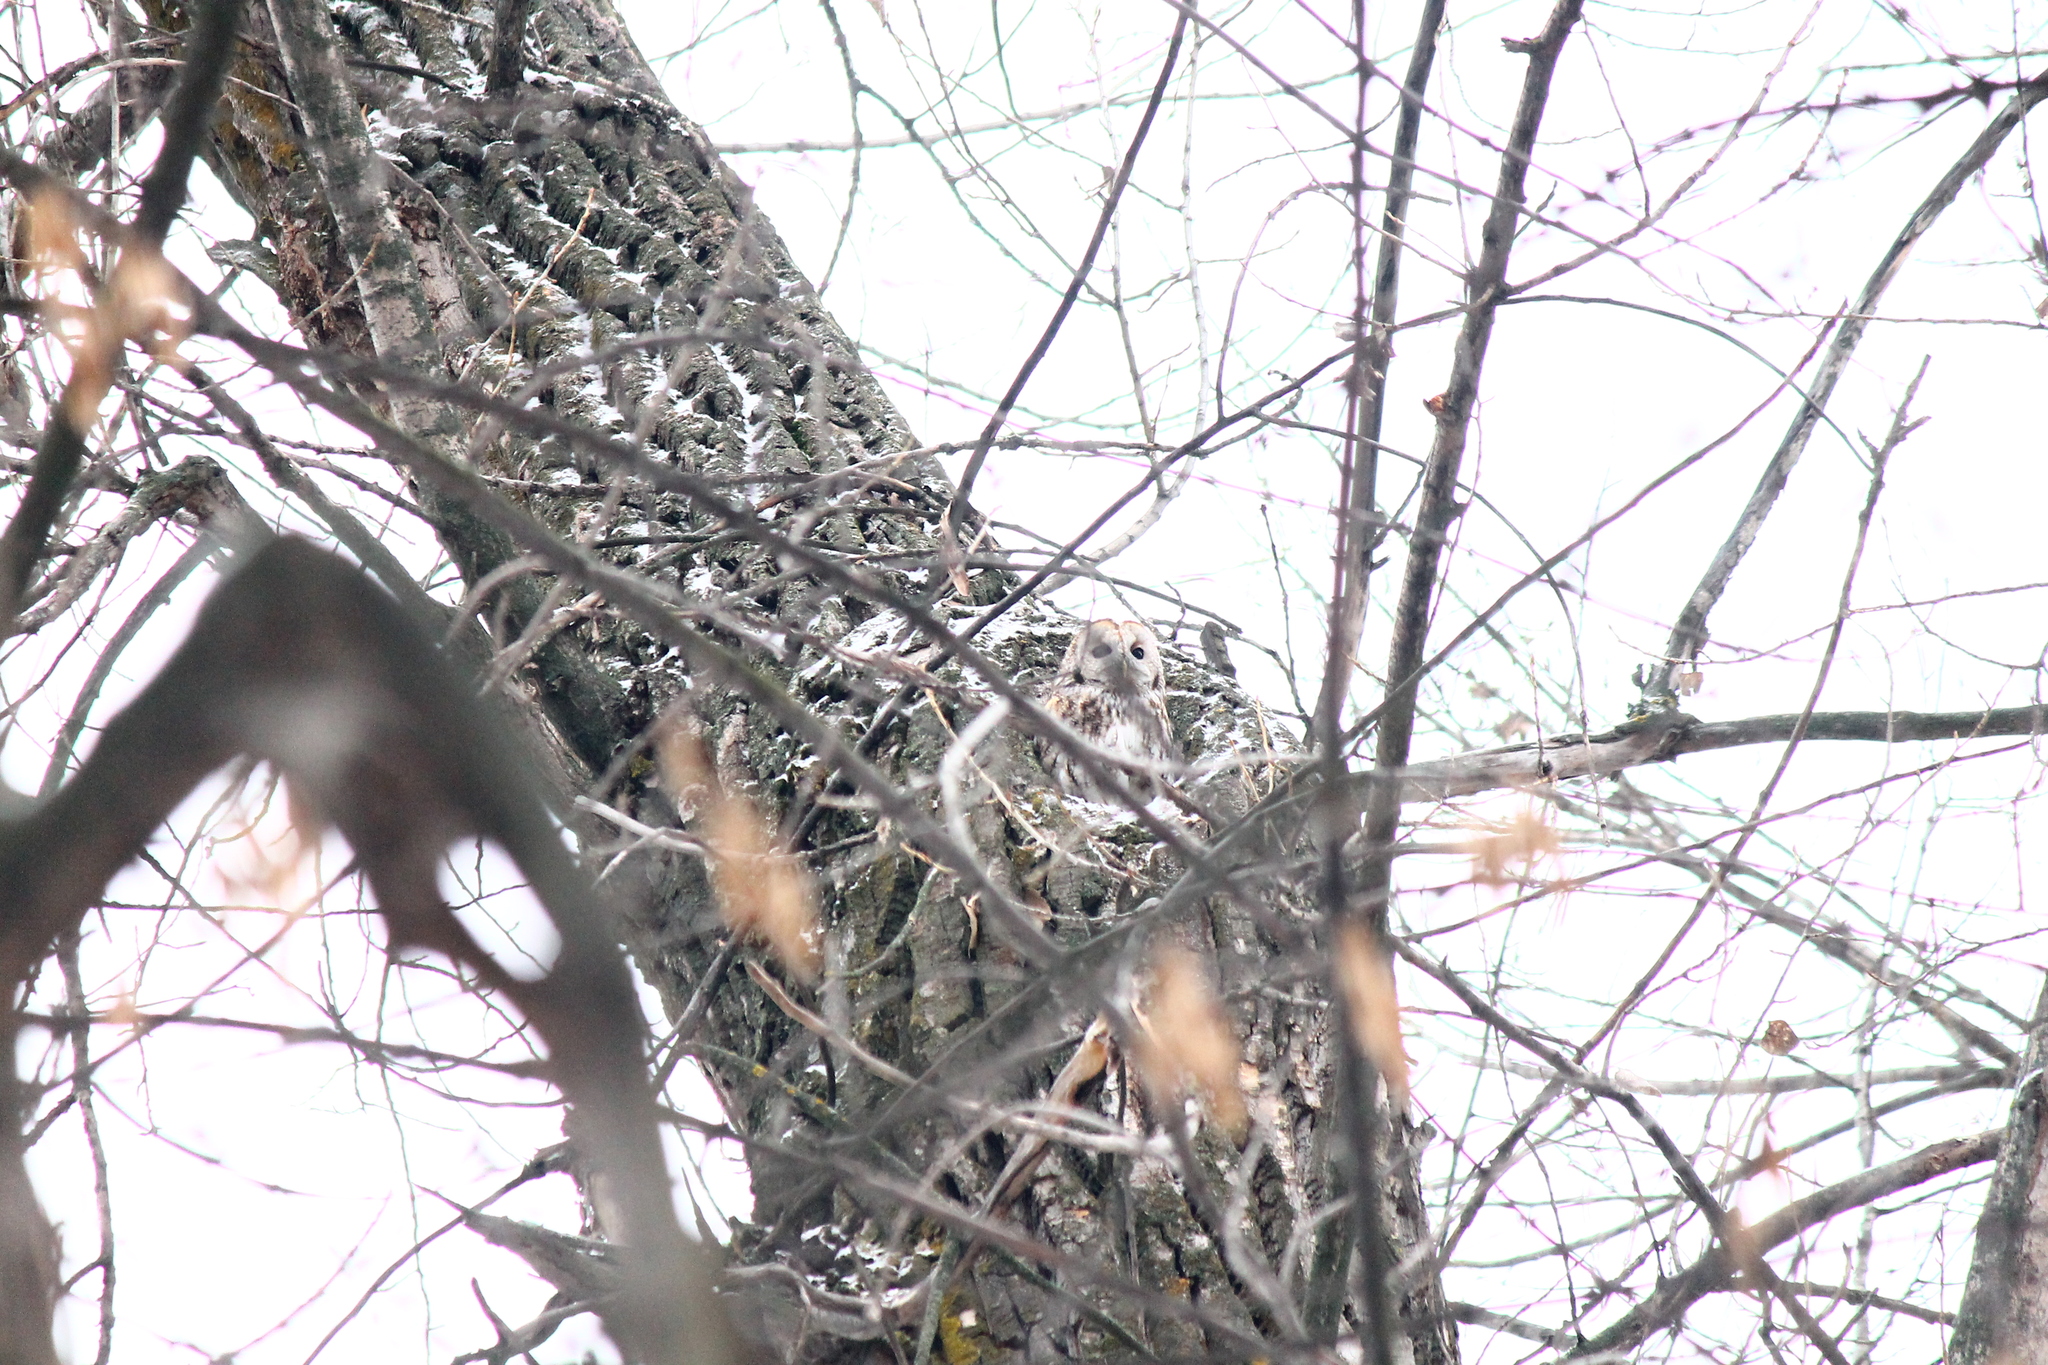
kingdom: Animalia
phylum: Chordata
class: Aves
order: Strigiformes
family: Strigidae
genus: Strix
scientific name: Strix aluco
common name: Tawny owl
